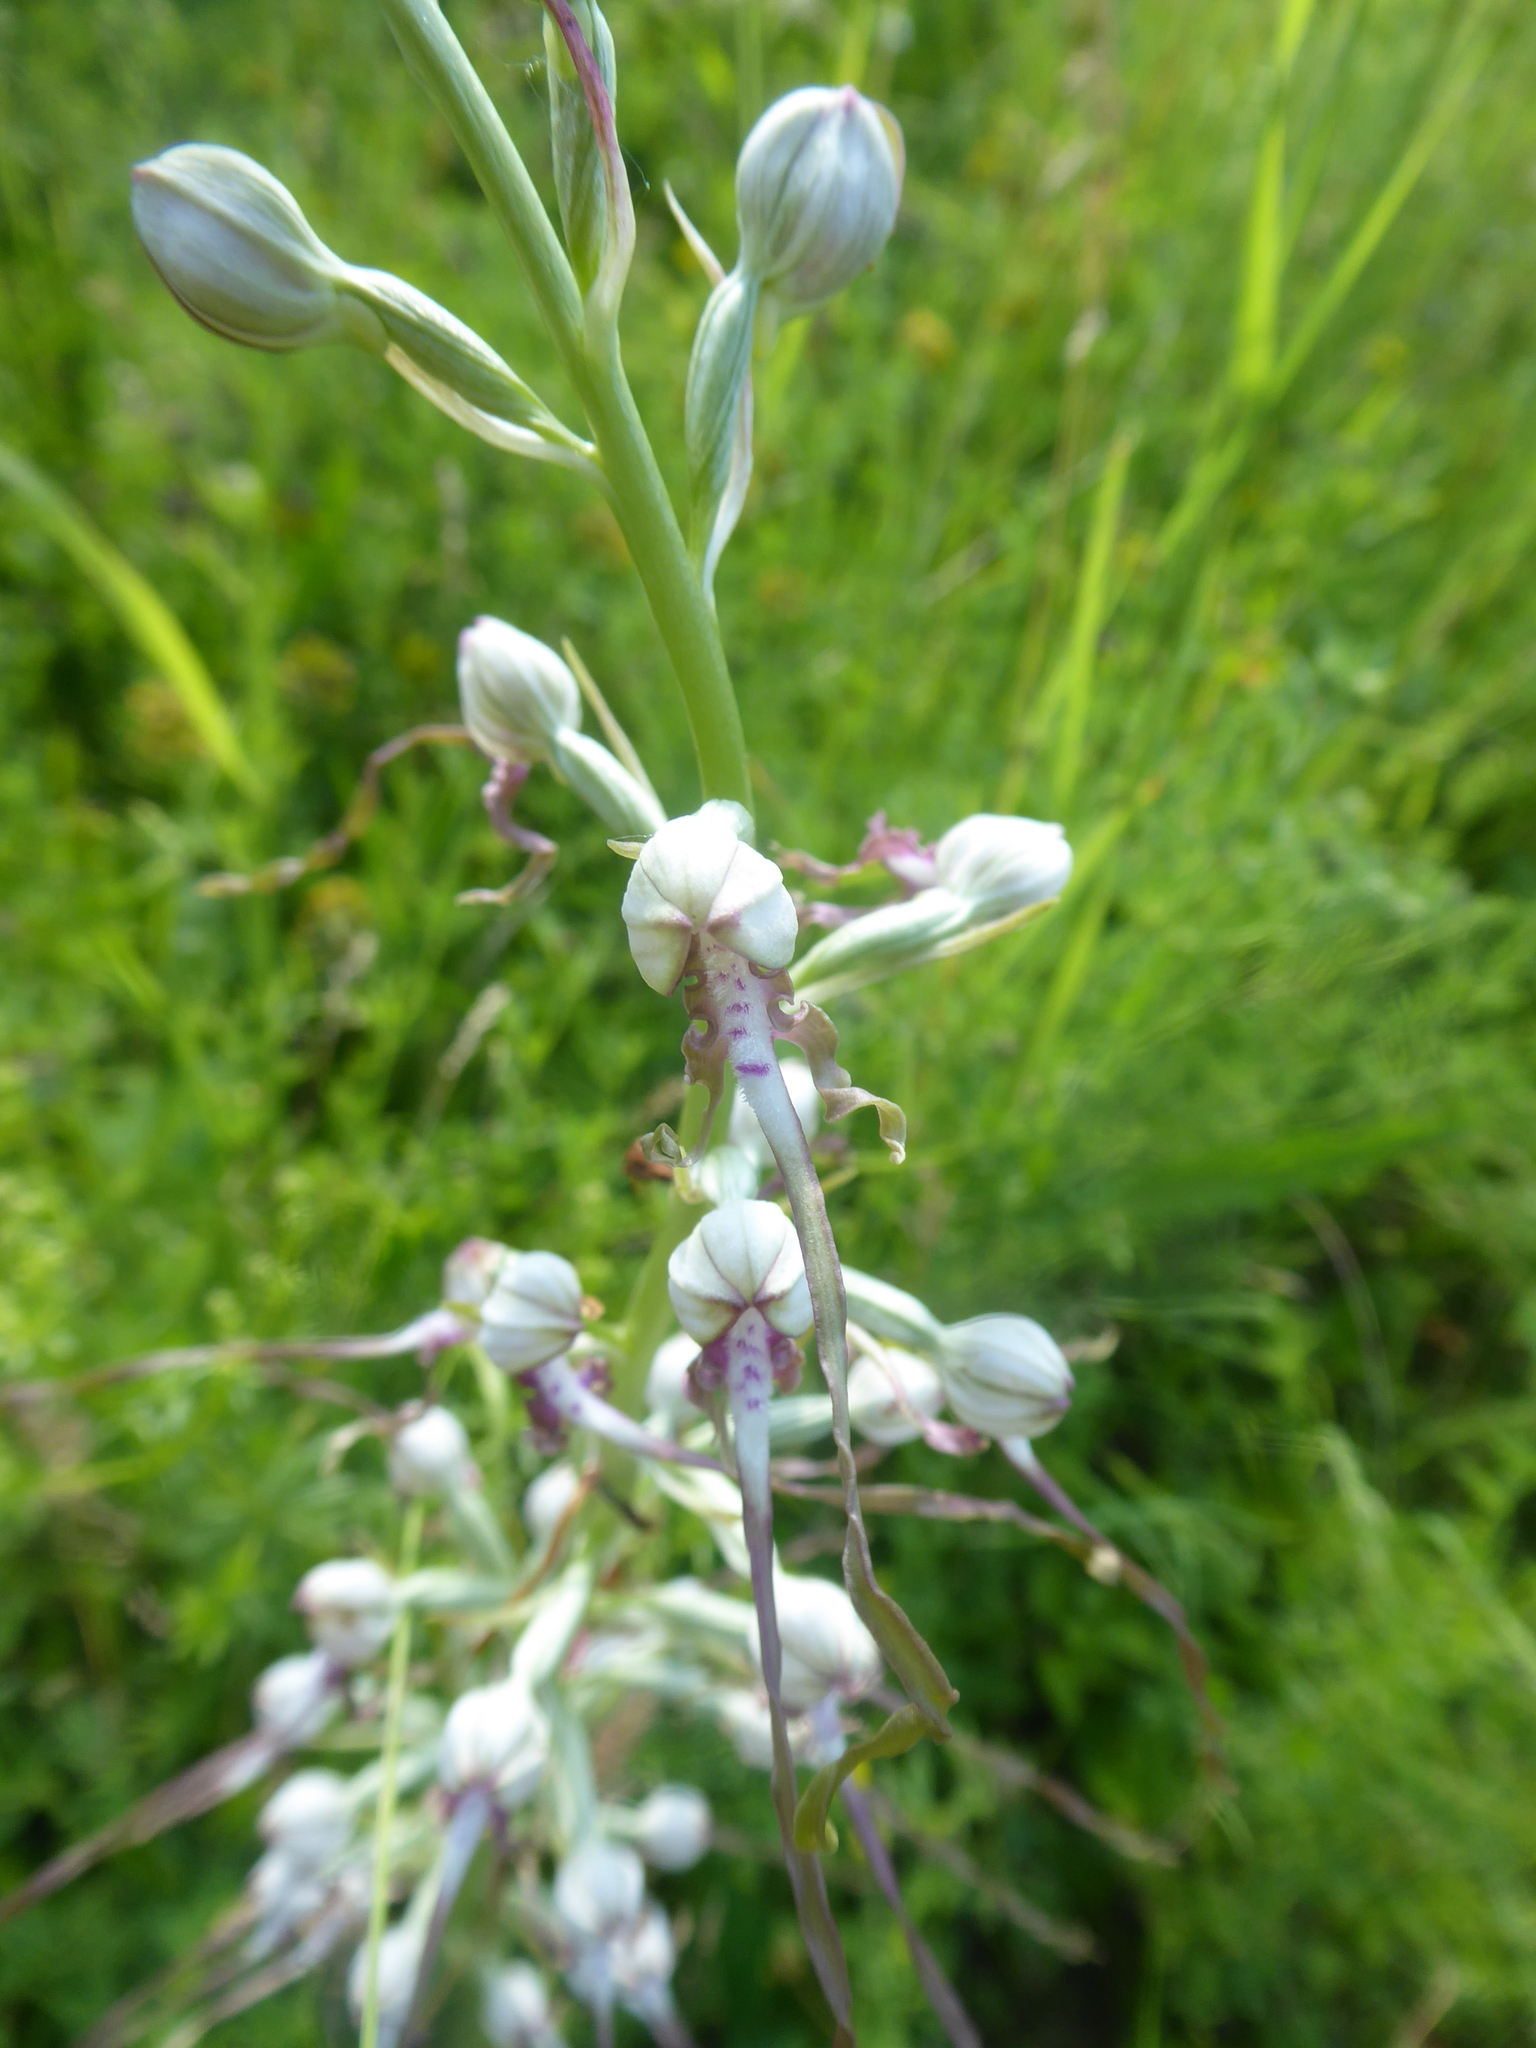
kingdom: Plantae
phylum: Tracheophyta
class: Liliopsida
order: Asparagales
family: Orchidaceae
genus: Himantoglossum
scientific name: Himantoglossum adriaticum
